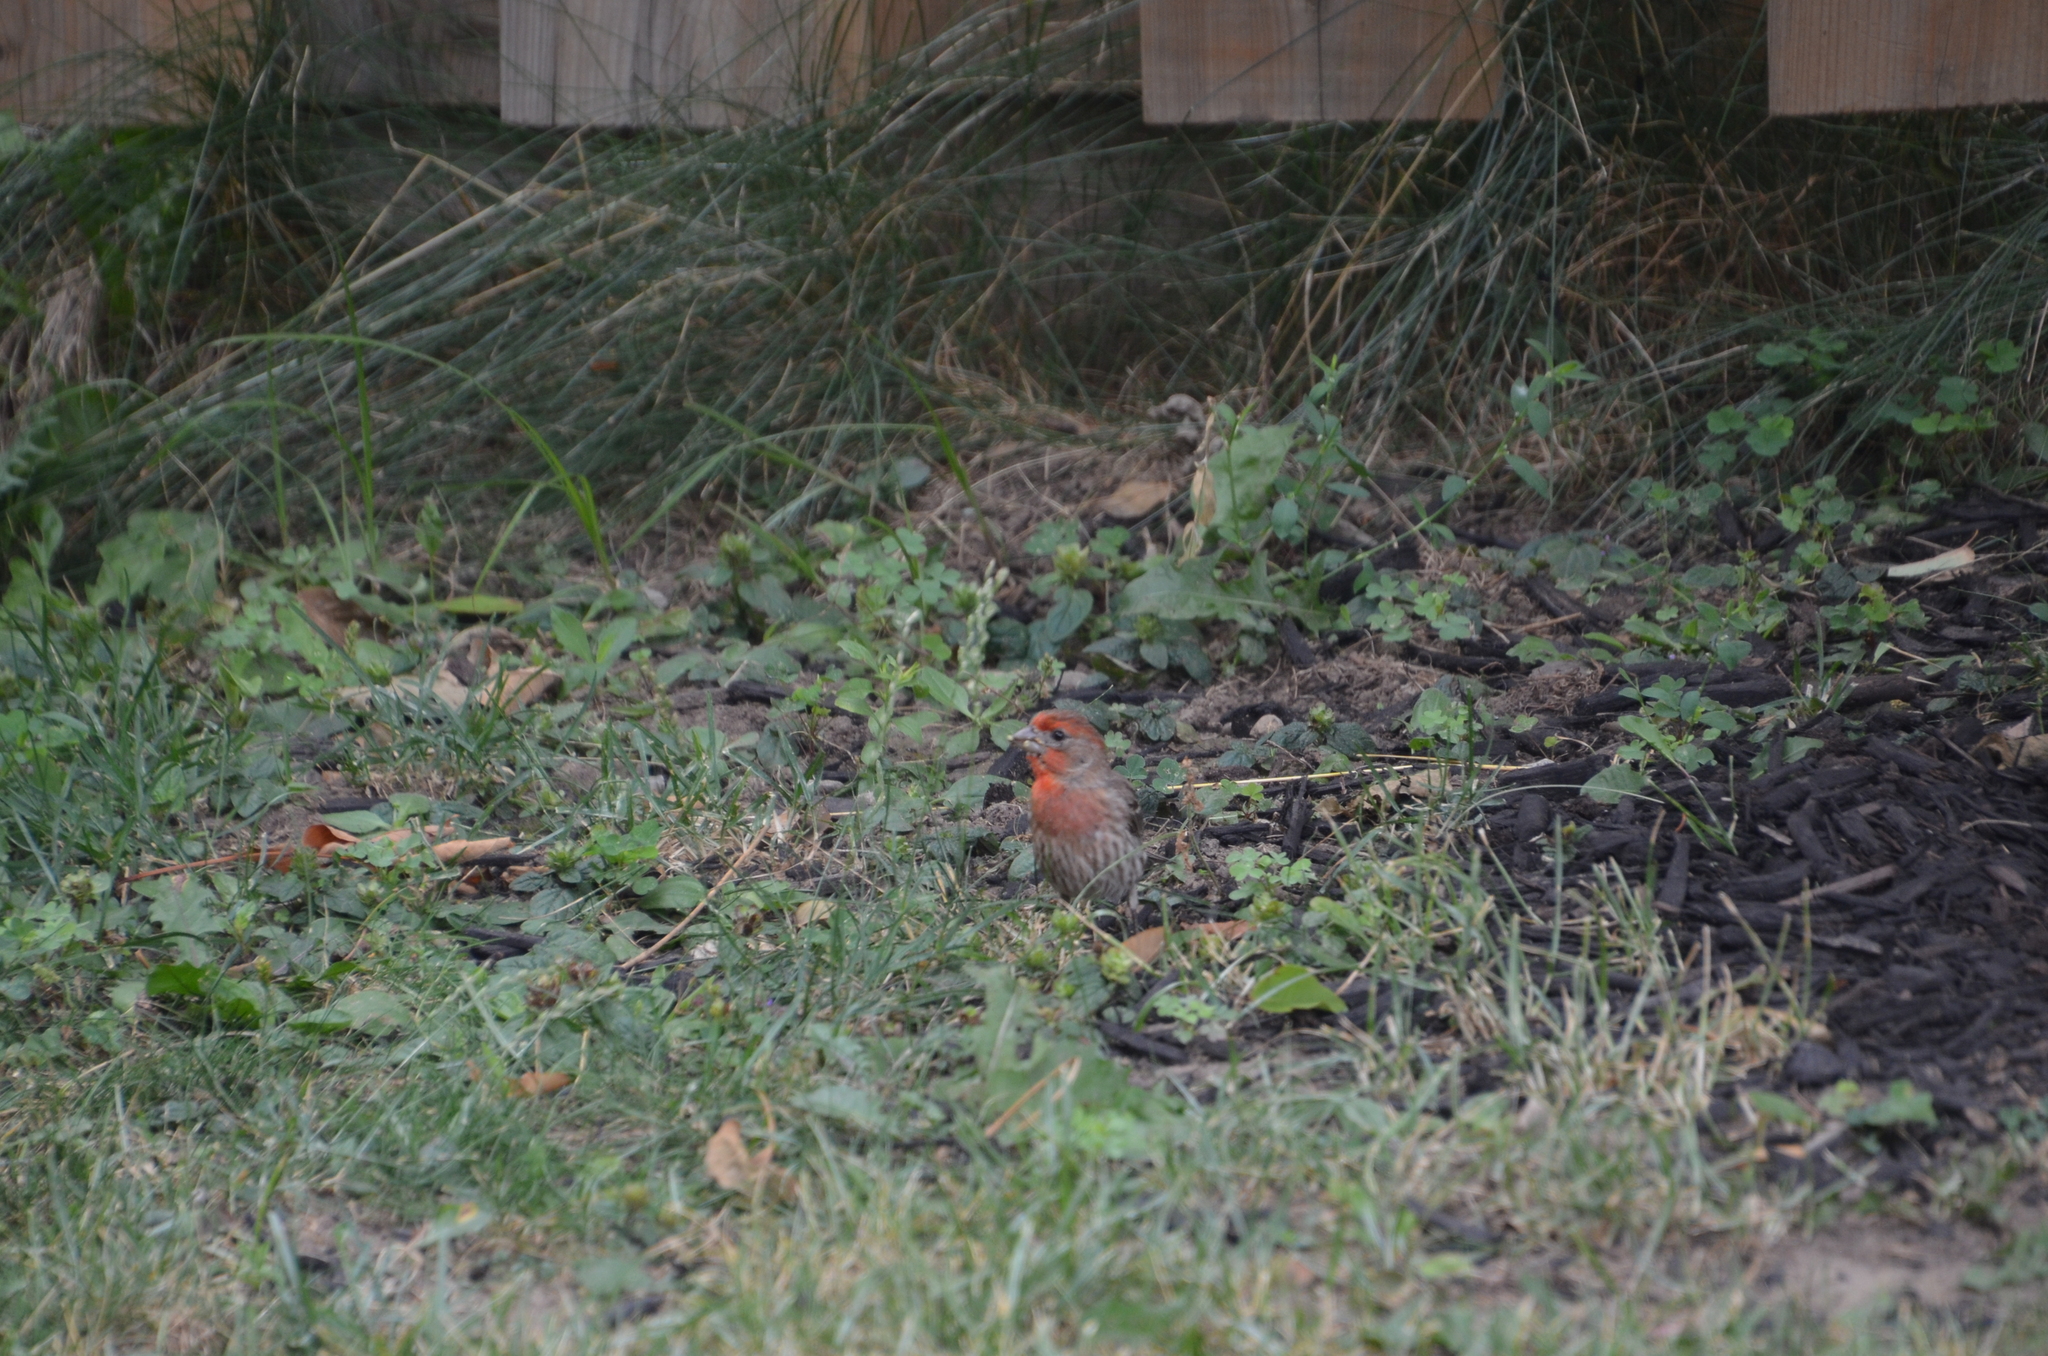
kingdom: Animalia
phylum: Chordata
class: Aves
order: Passeriformes
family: Fringillidae
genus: Haemorhous
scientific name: Haemorhous mexicanus
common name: House finch
